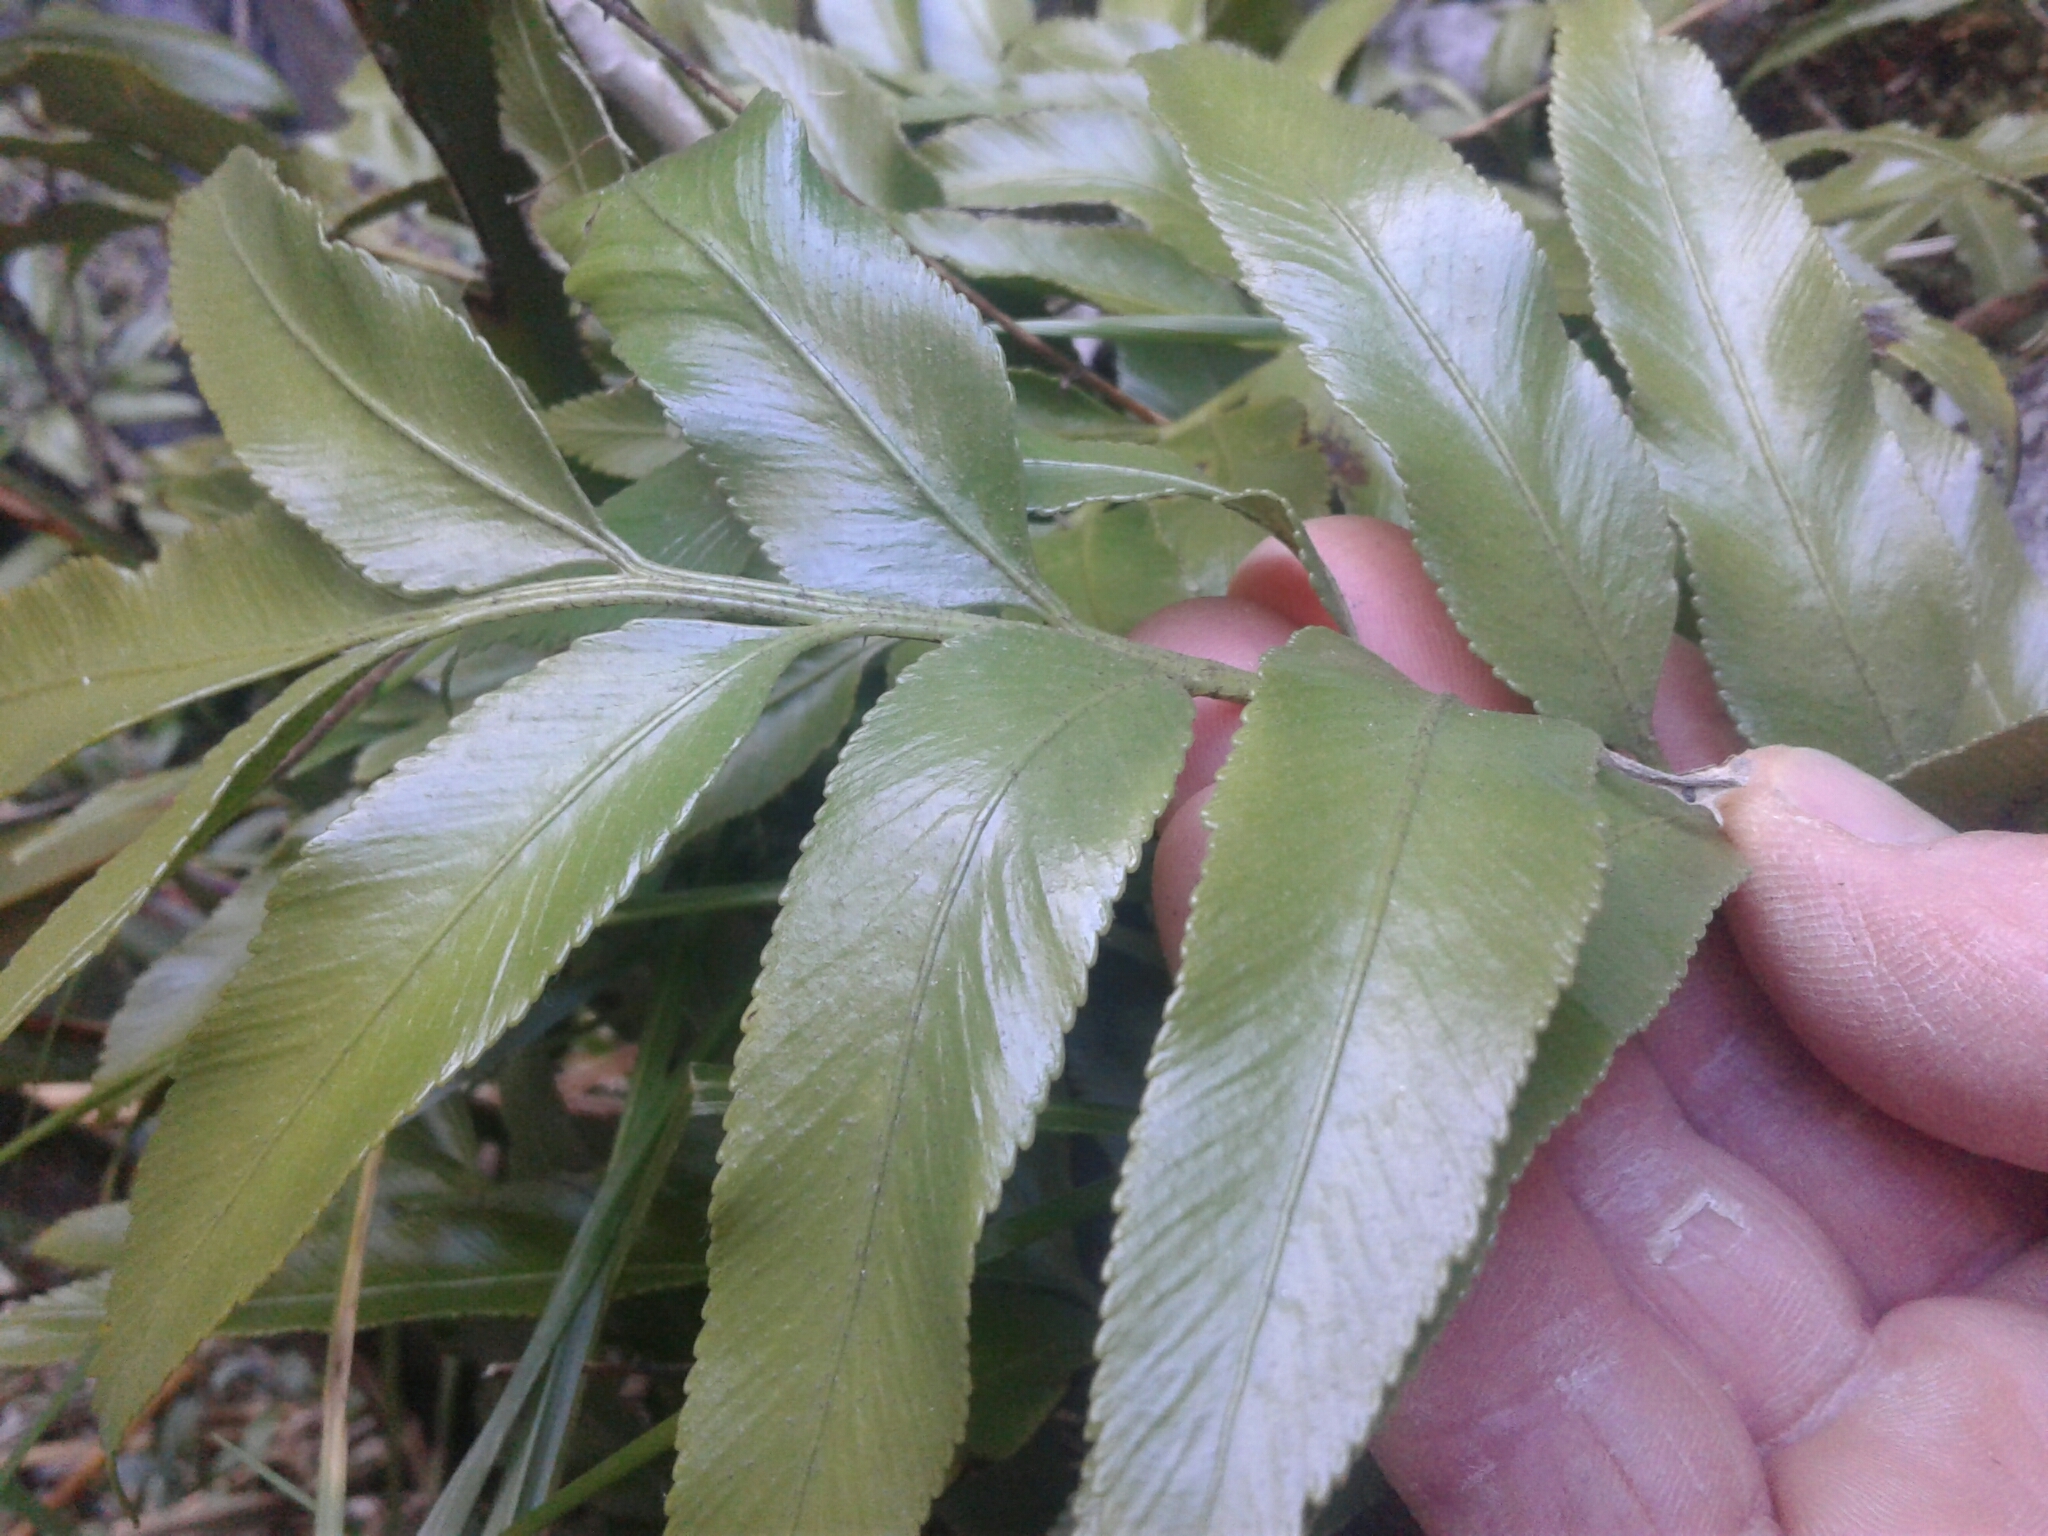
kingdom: Plantae
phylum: Tracheophyta
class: Polypodiopsida
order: Polypodiales
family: Aspleniaceae
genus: Asplenium
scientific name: Asplenium lepidotum
